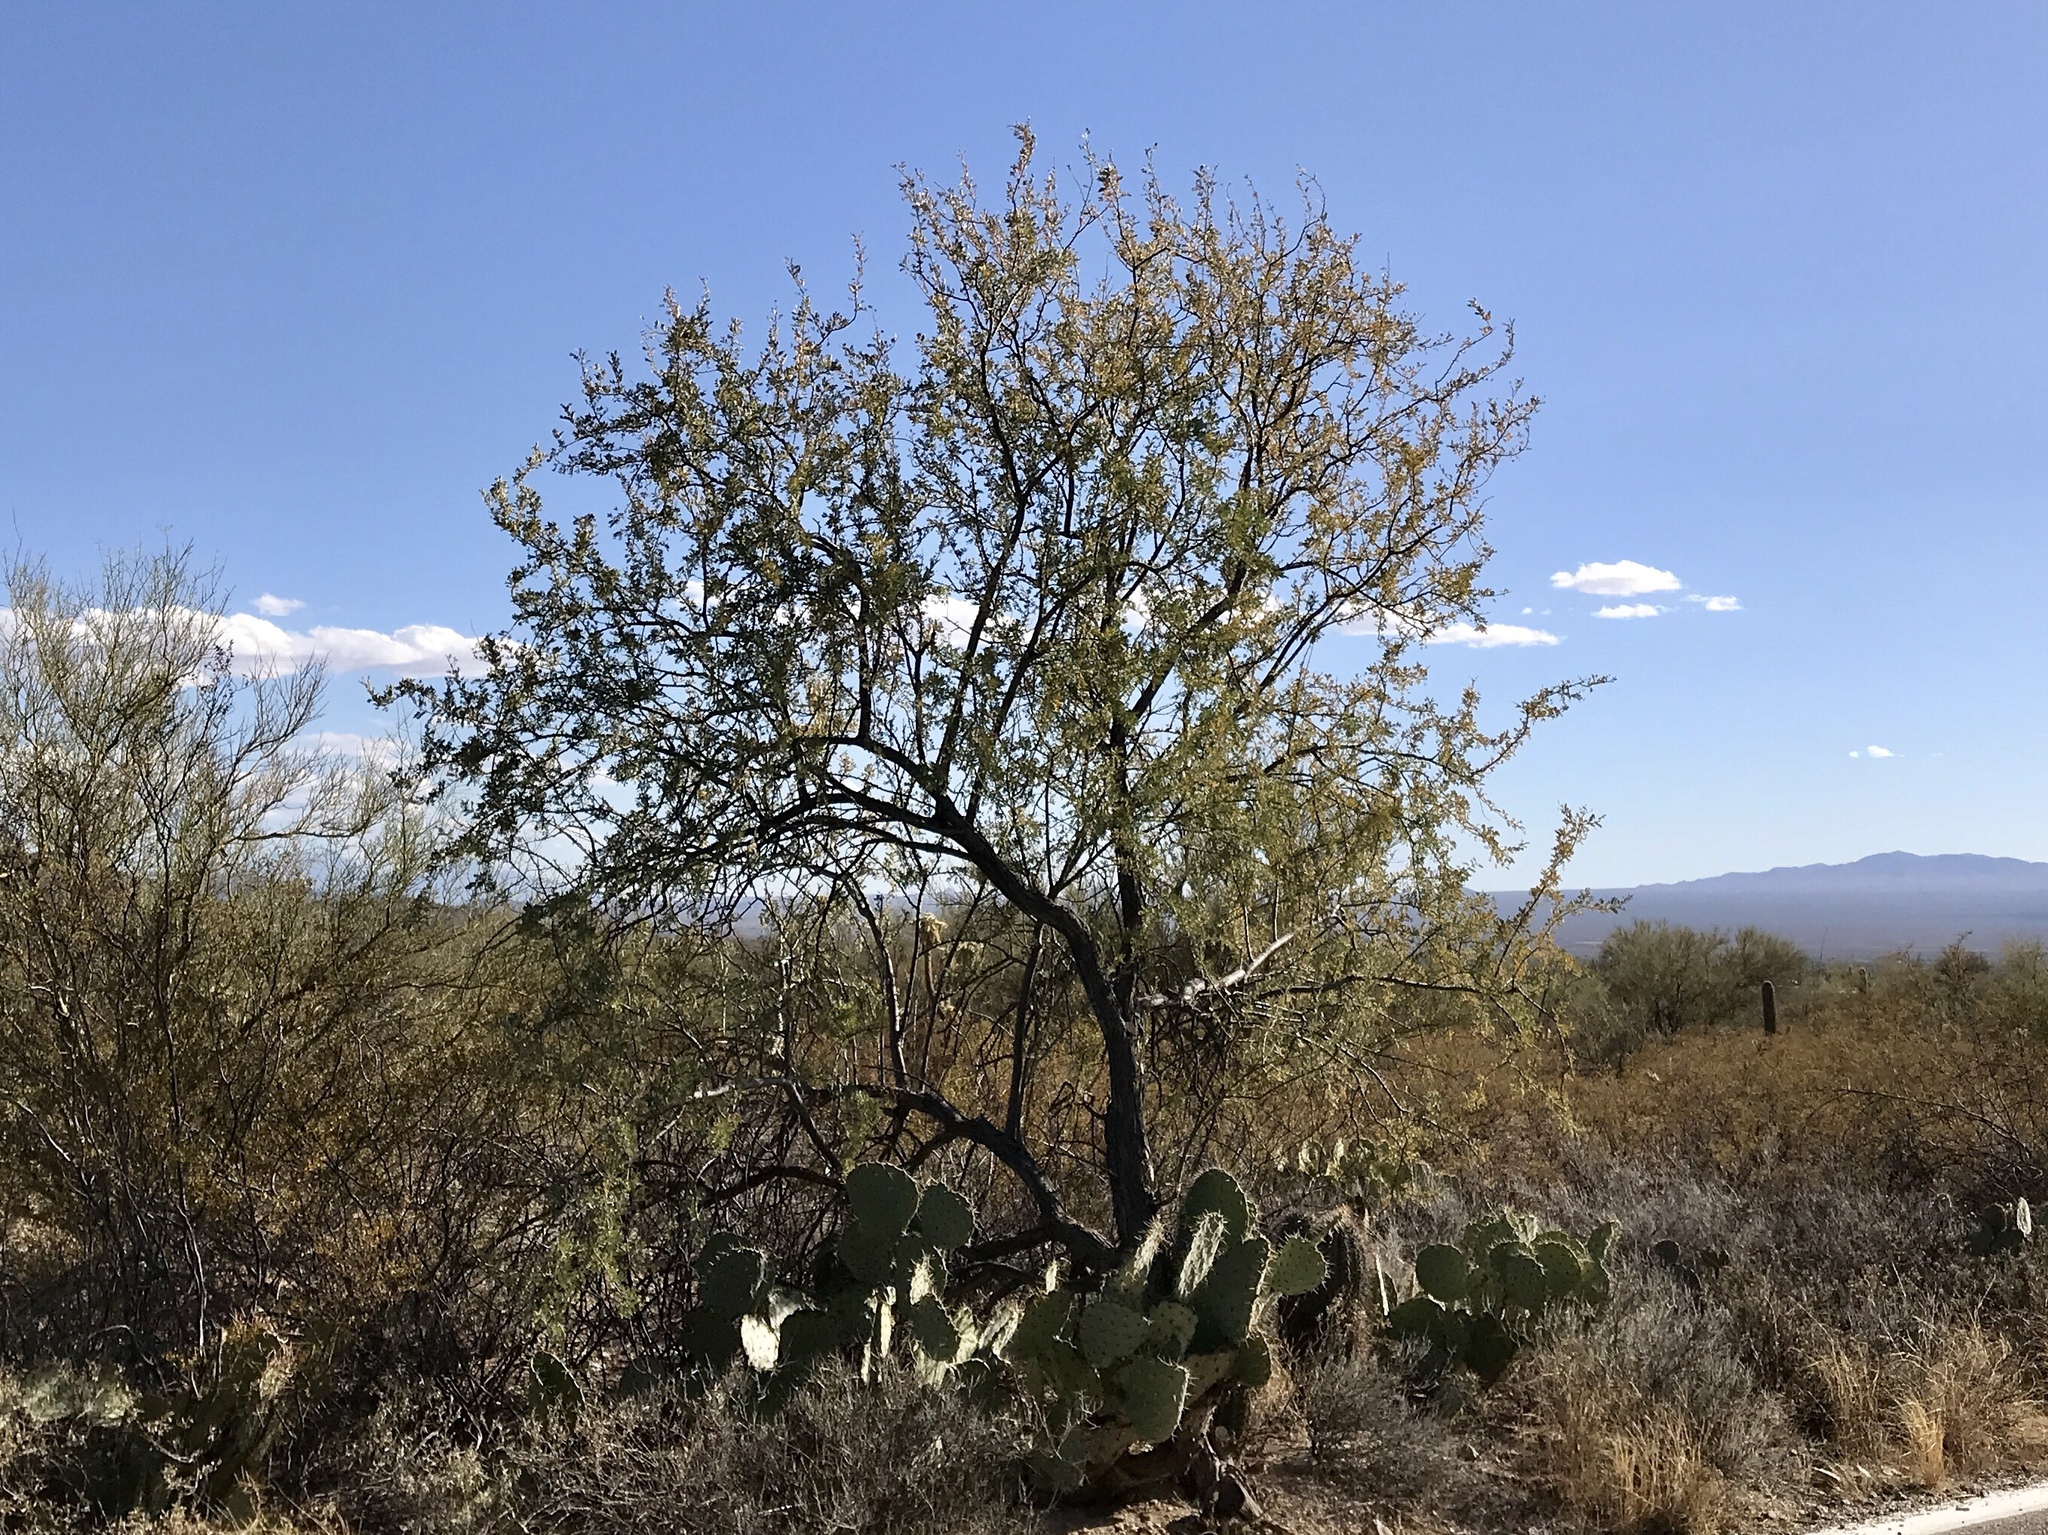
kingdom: Plantae
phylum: Tracheophyta
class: Magnoliopsida
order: Fabales
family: Fabaceae
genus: Olneya
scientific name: Olneya tesota
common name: Desert ironwood
